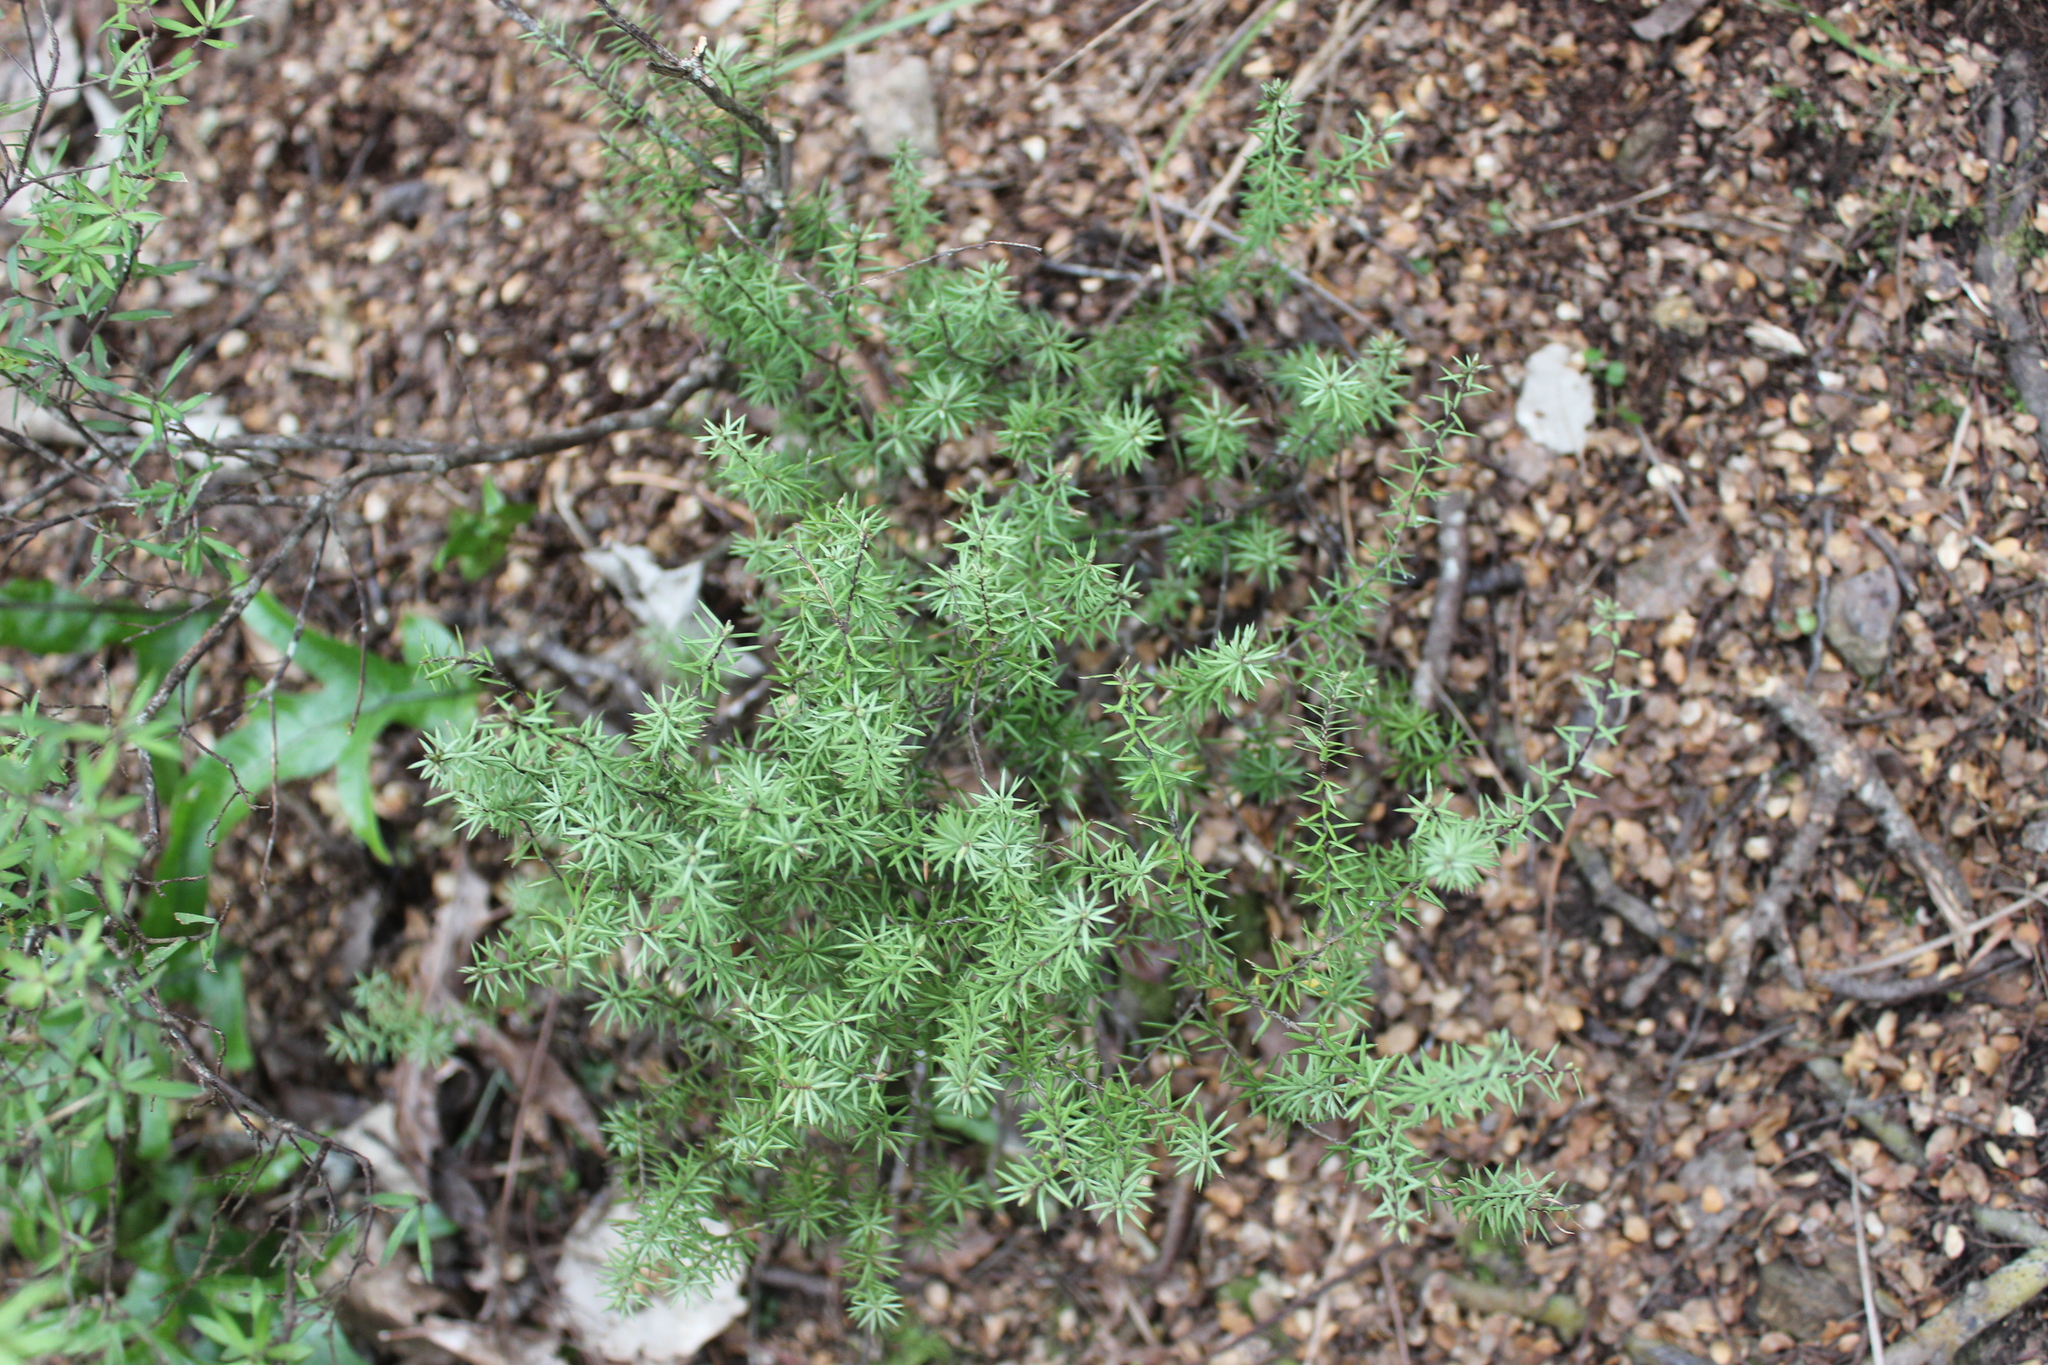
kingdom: Plantae
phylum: Tracheophyta
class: Magnoliopsida
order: Ericales
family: Ericaceae
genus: Leptecophylla
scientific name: Leptecophylla juniperina
